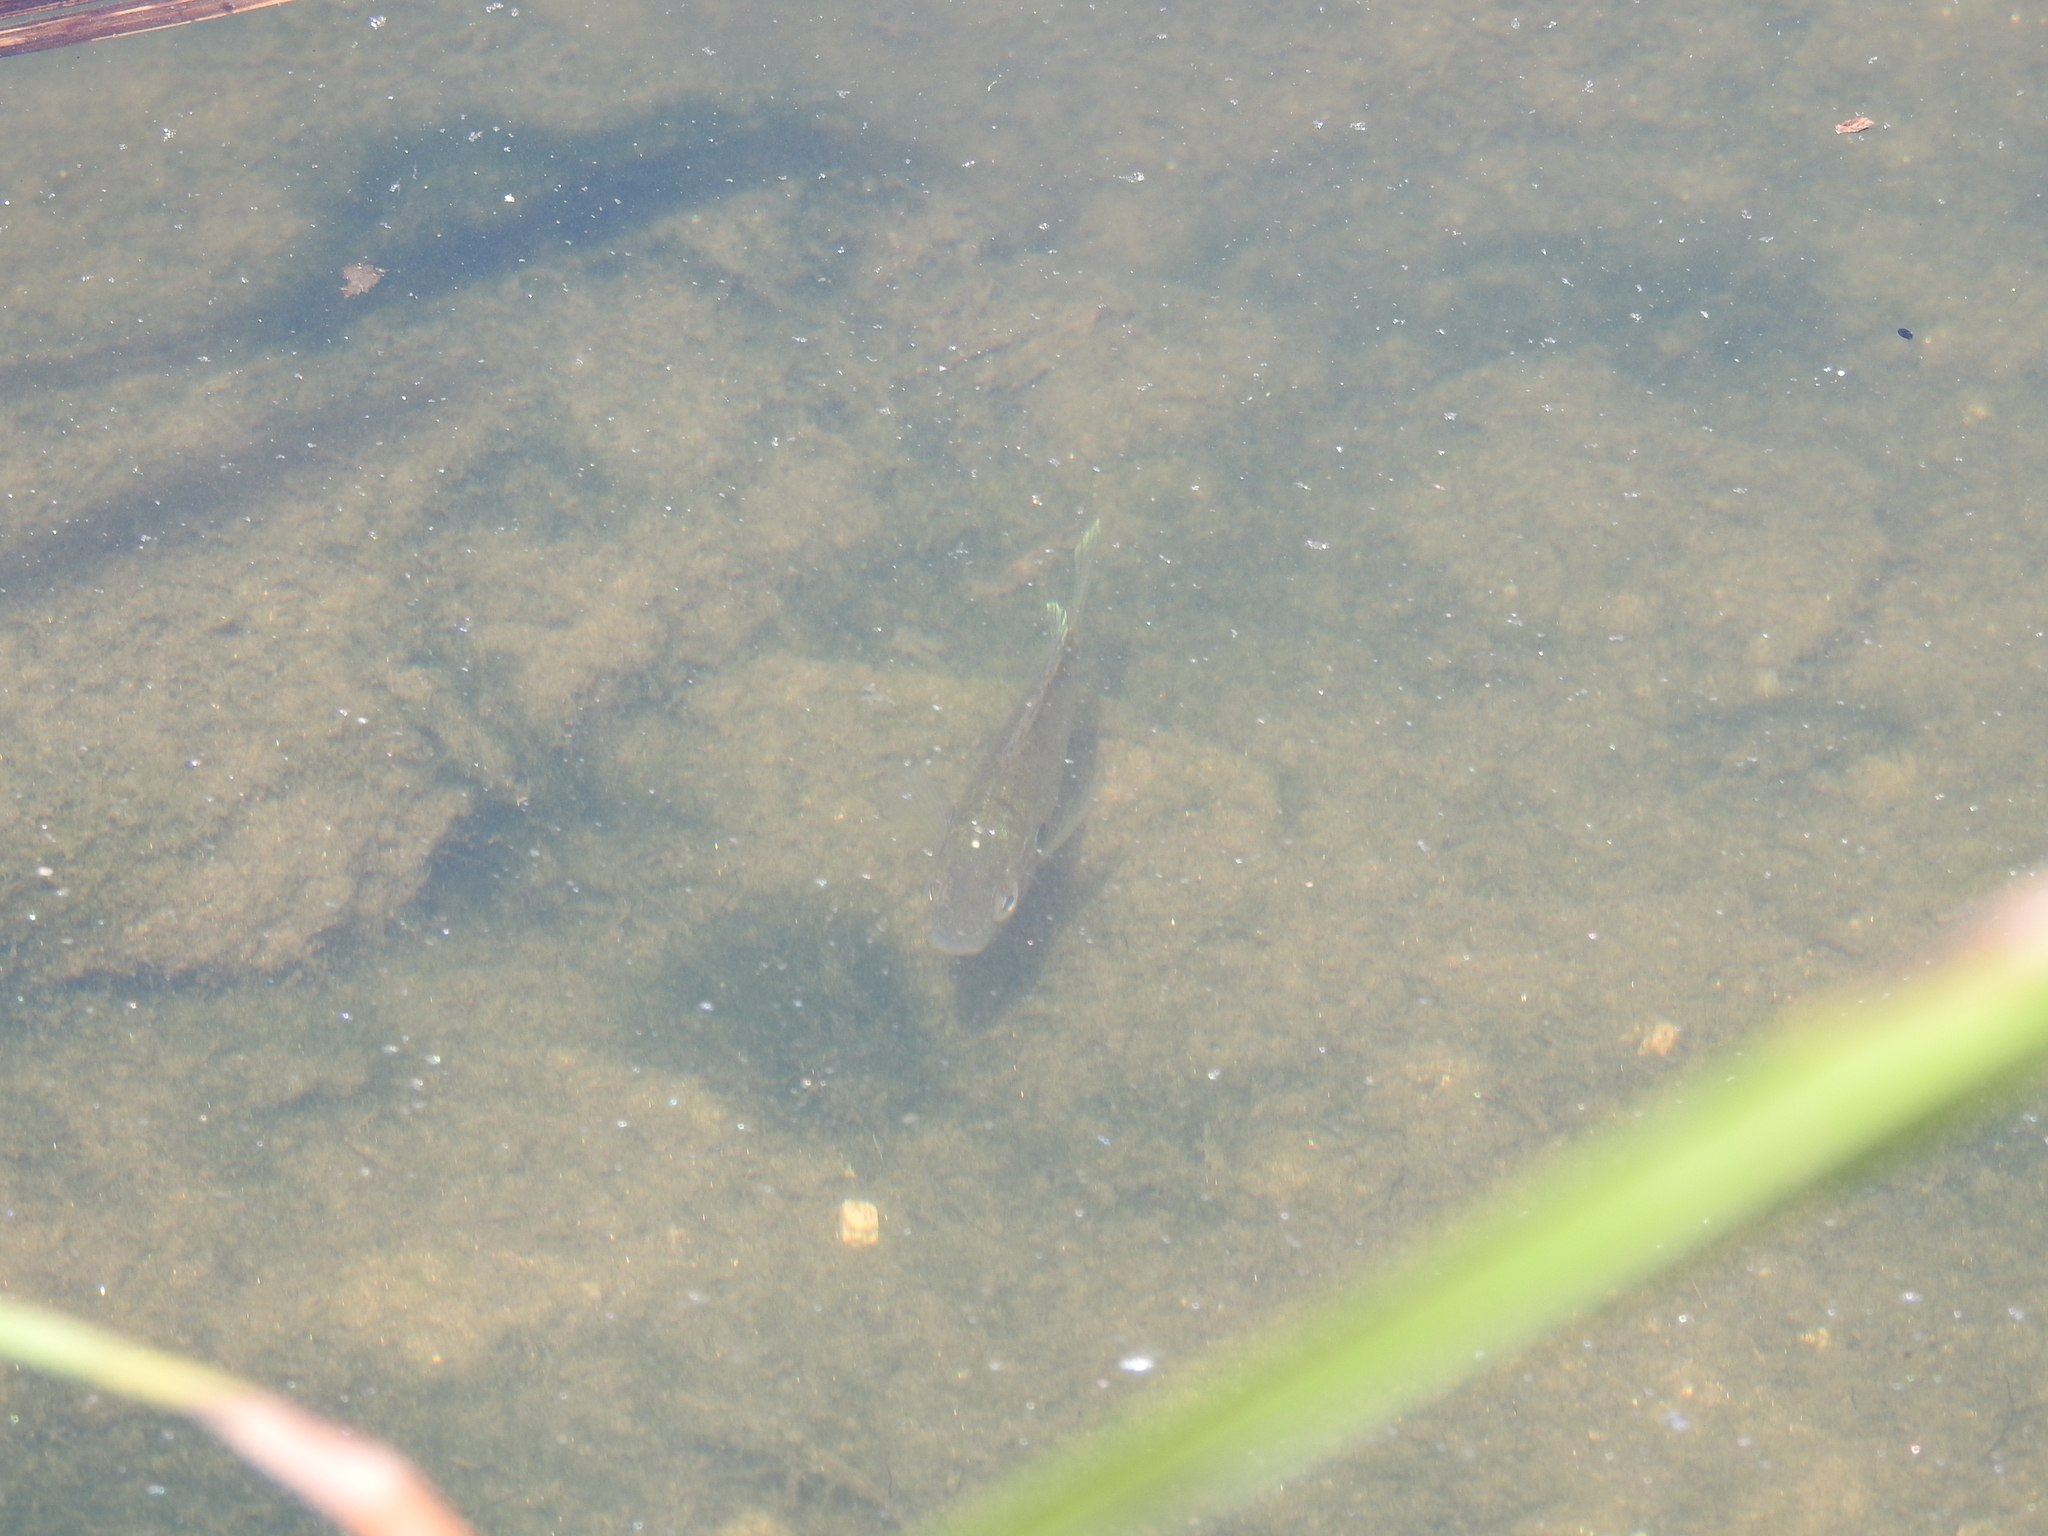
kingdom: Animalia
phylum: Chordata
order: Perciformes
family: Centrarchidae
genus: Lepomis
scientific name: Lepomis gibbosus
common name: Pumpkinseed
